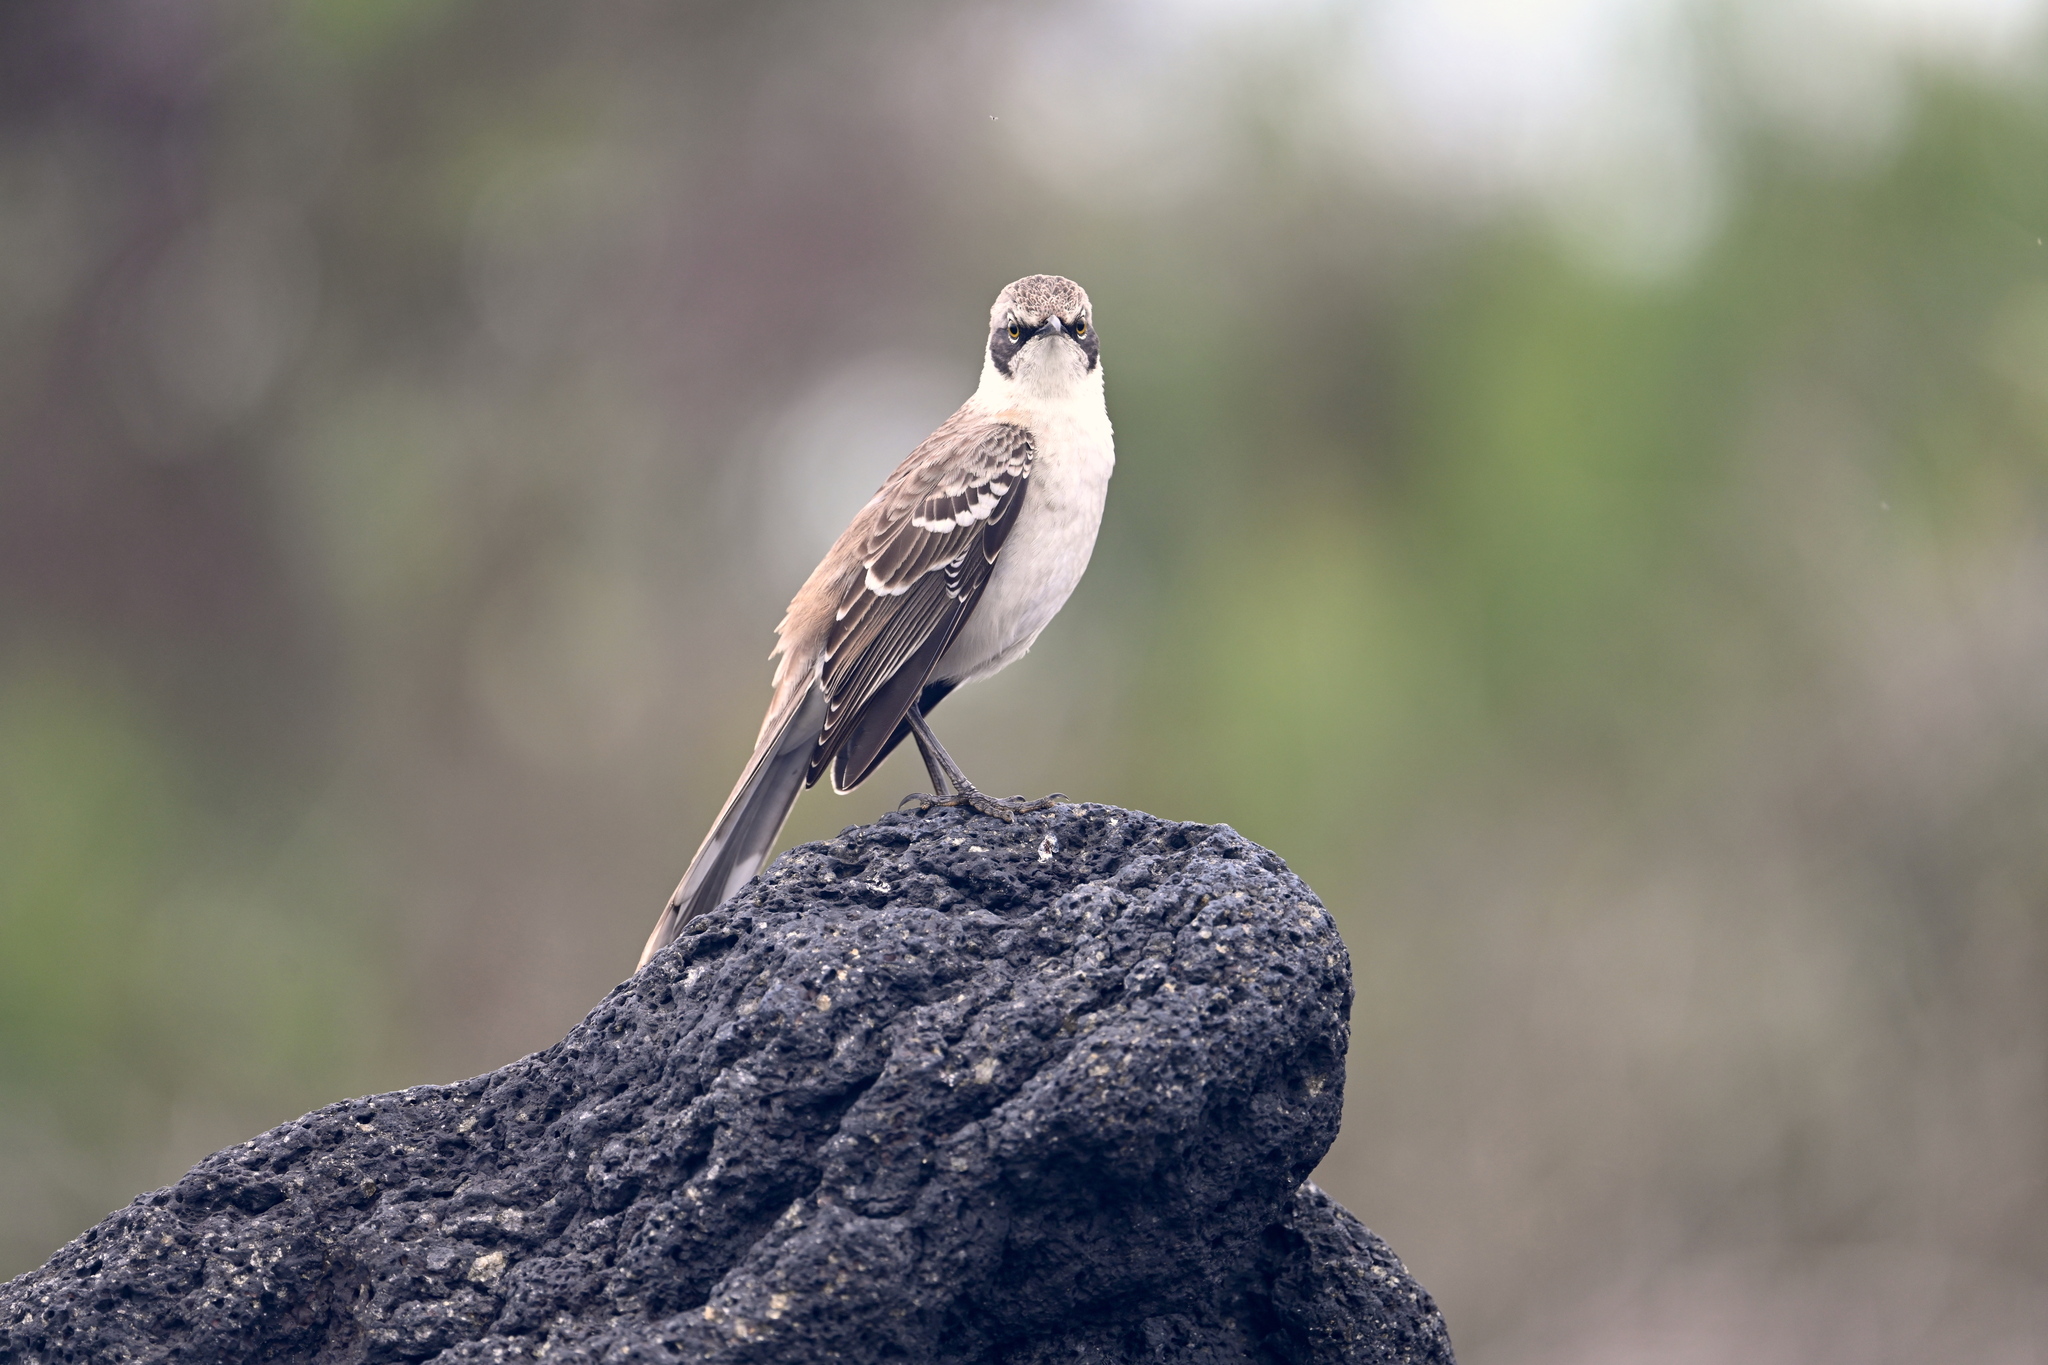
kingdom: Animalia
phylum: Chordata
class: Aves
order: Passeriformes
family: Mimidae
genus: Mimus
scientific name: Mimus parvulus
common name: Galapagos mockingbird
